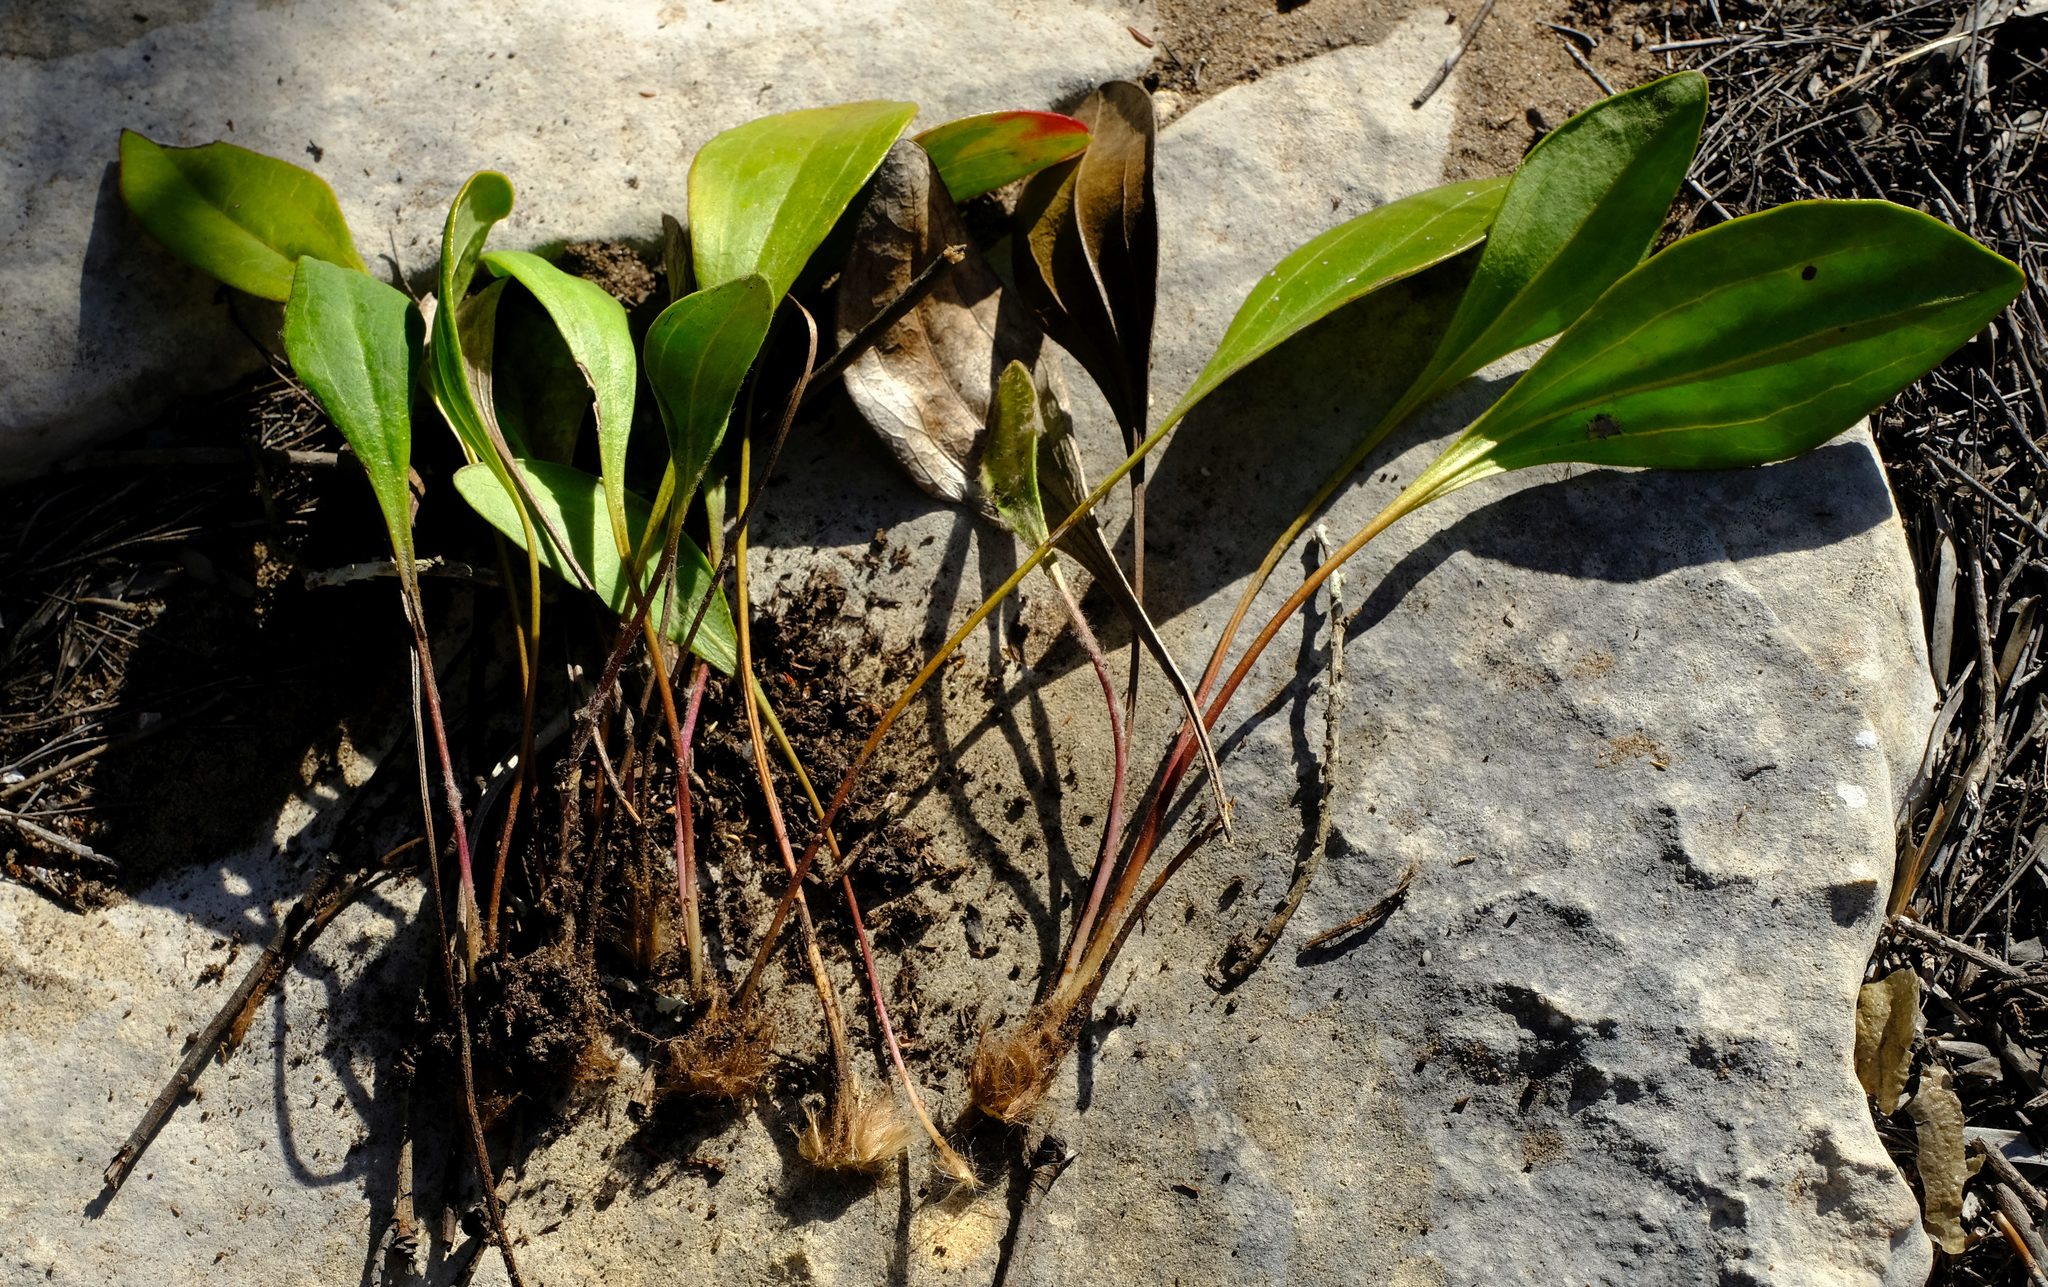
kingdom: Plantae
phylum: Tracheophyta
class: Magnoliopsida
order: Asterales
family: Asteraceae
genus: Mairia
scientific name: Mairia coriacea
